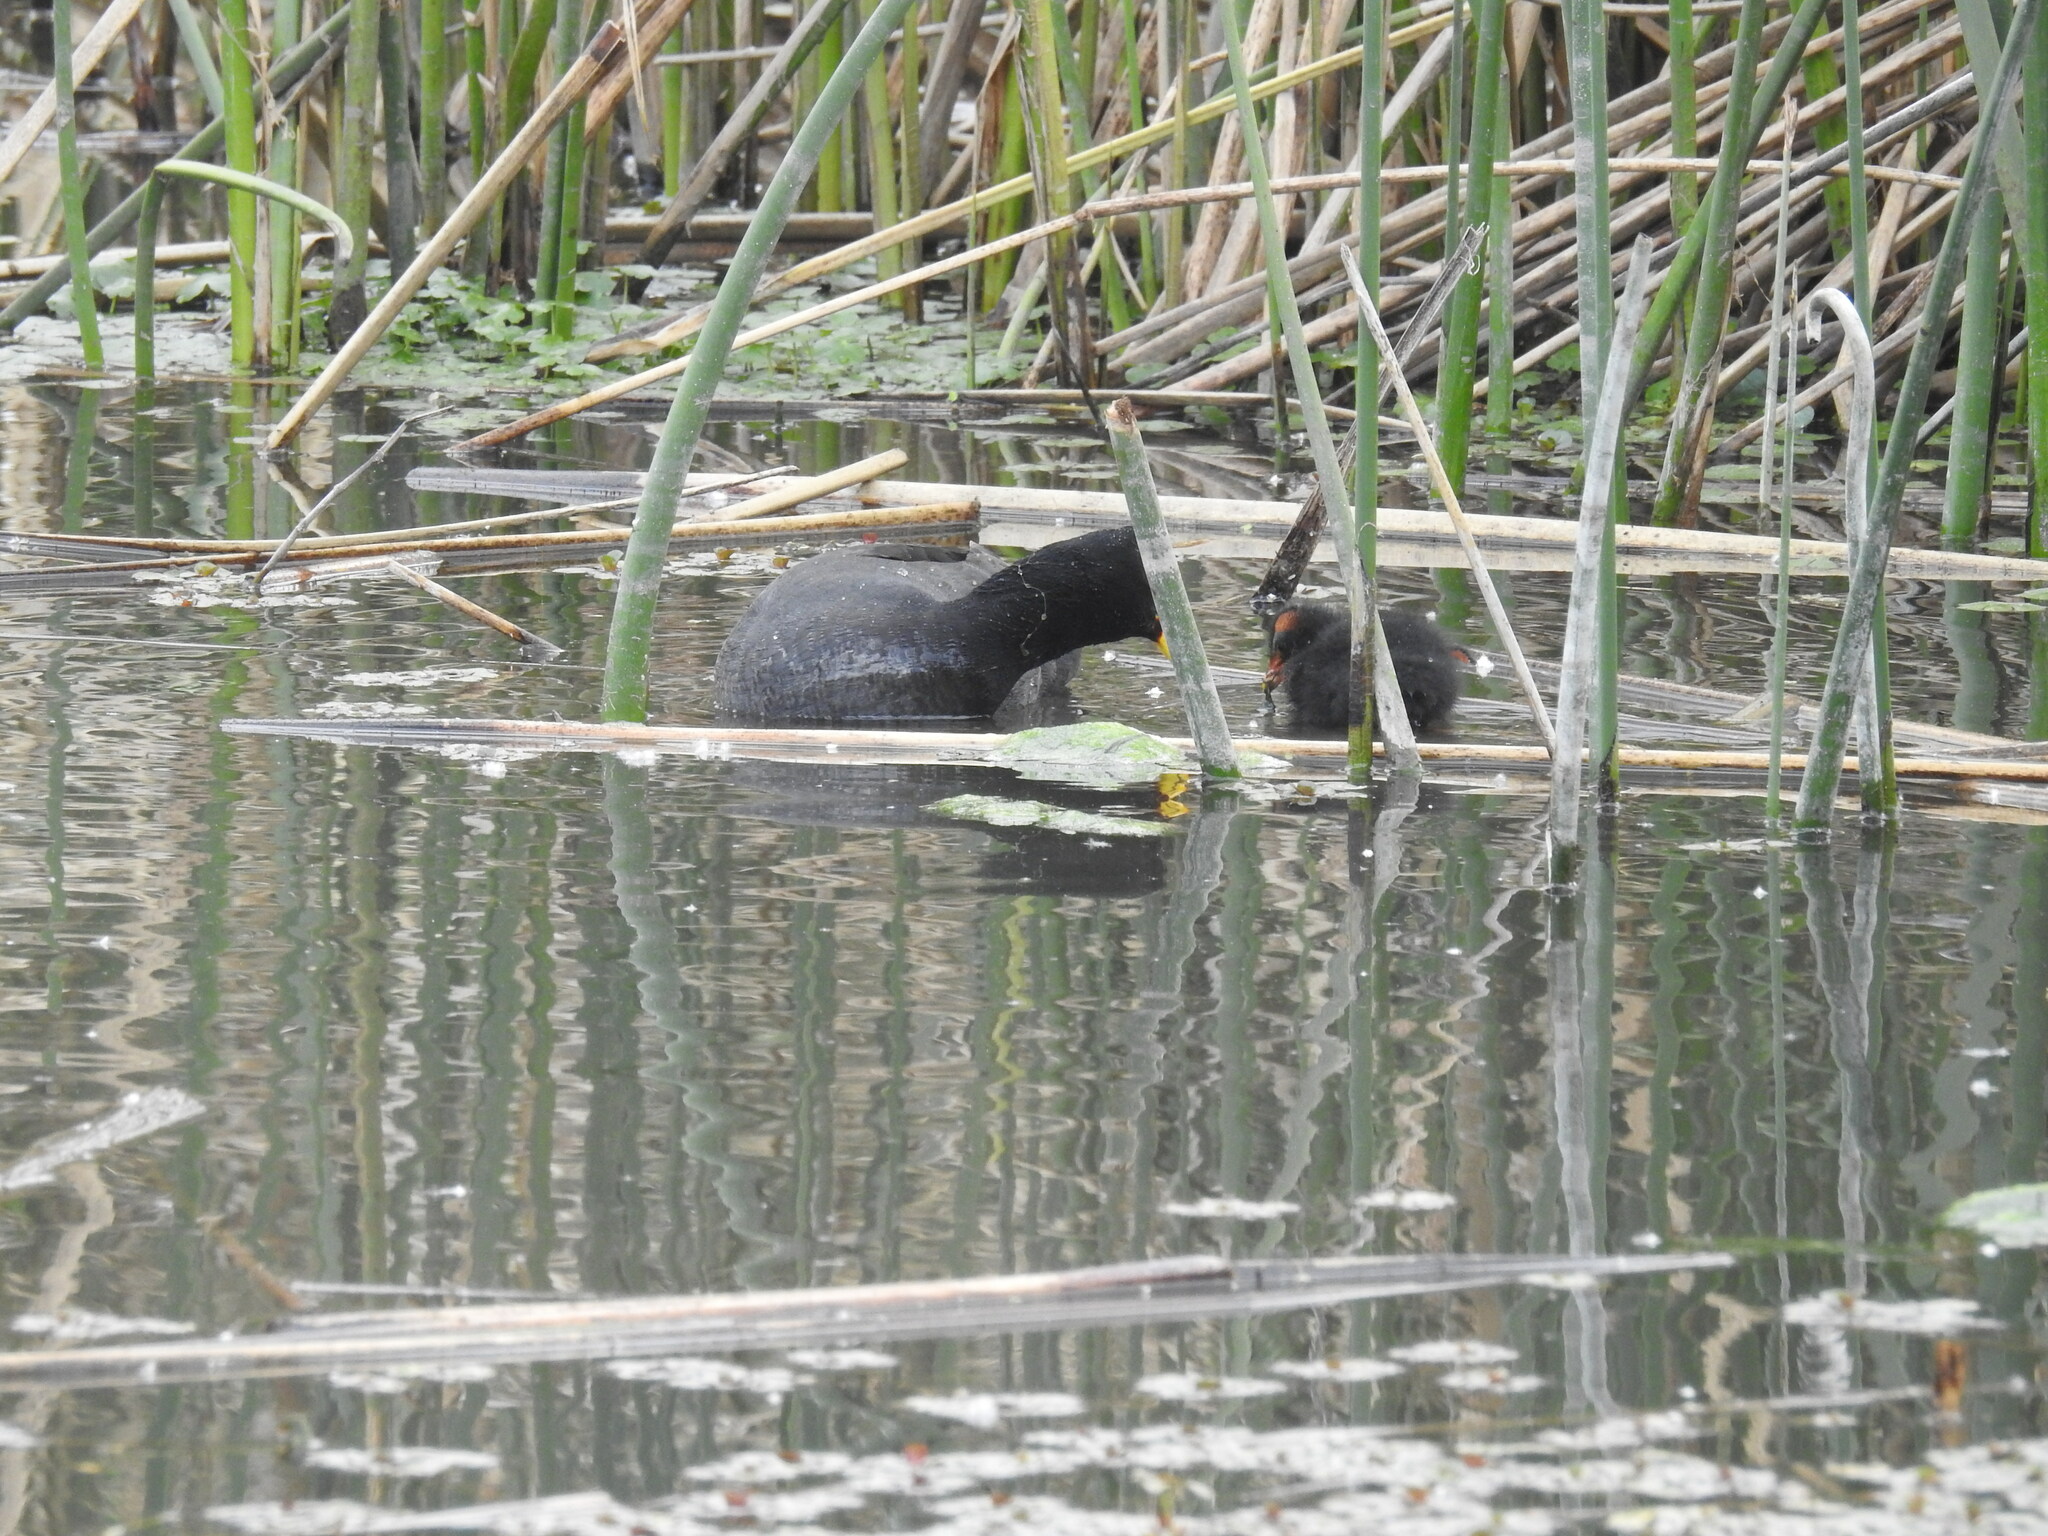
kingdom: Animalia
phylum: Chordata
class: Aves
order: Gruiformes
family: Rallidae
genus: Fulica
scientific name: Fulica rufifrons
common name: Red-fronted coot
